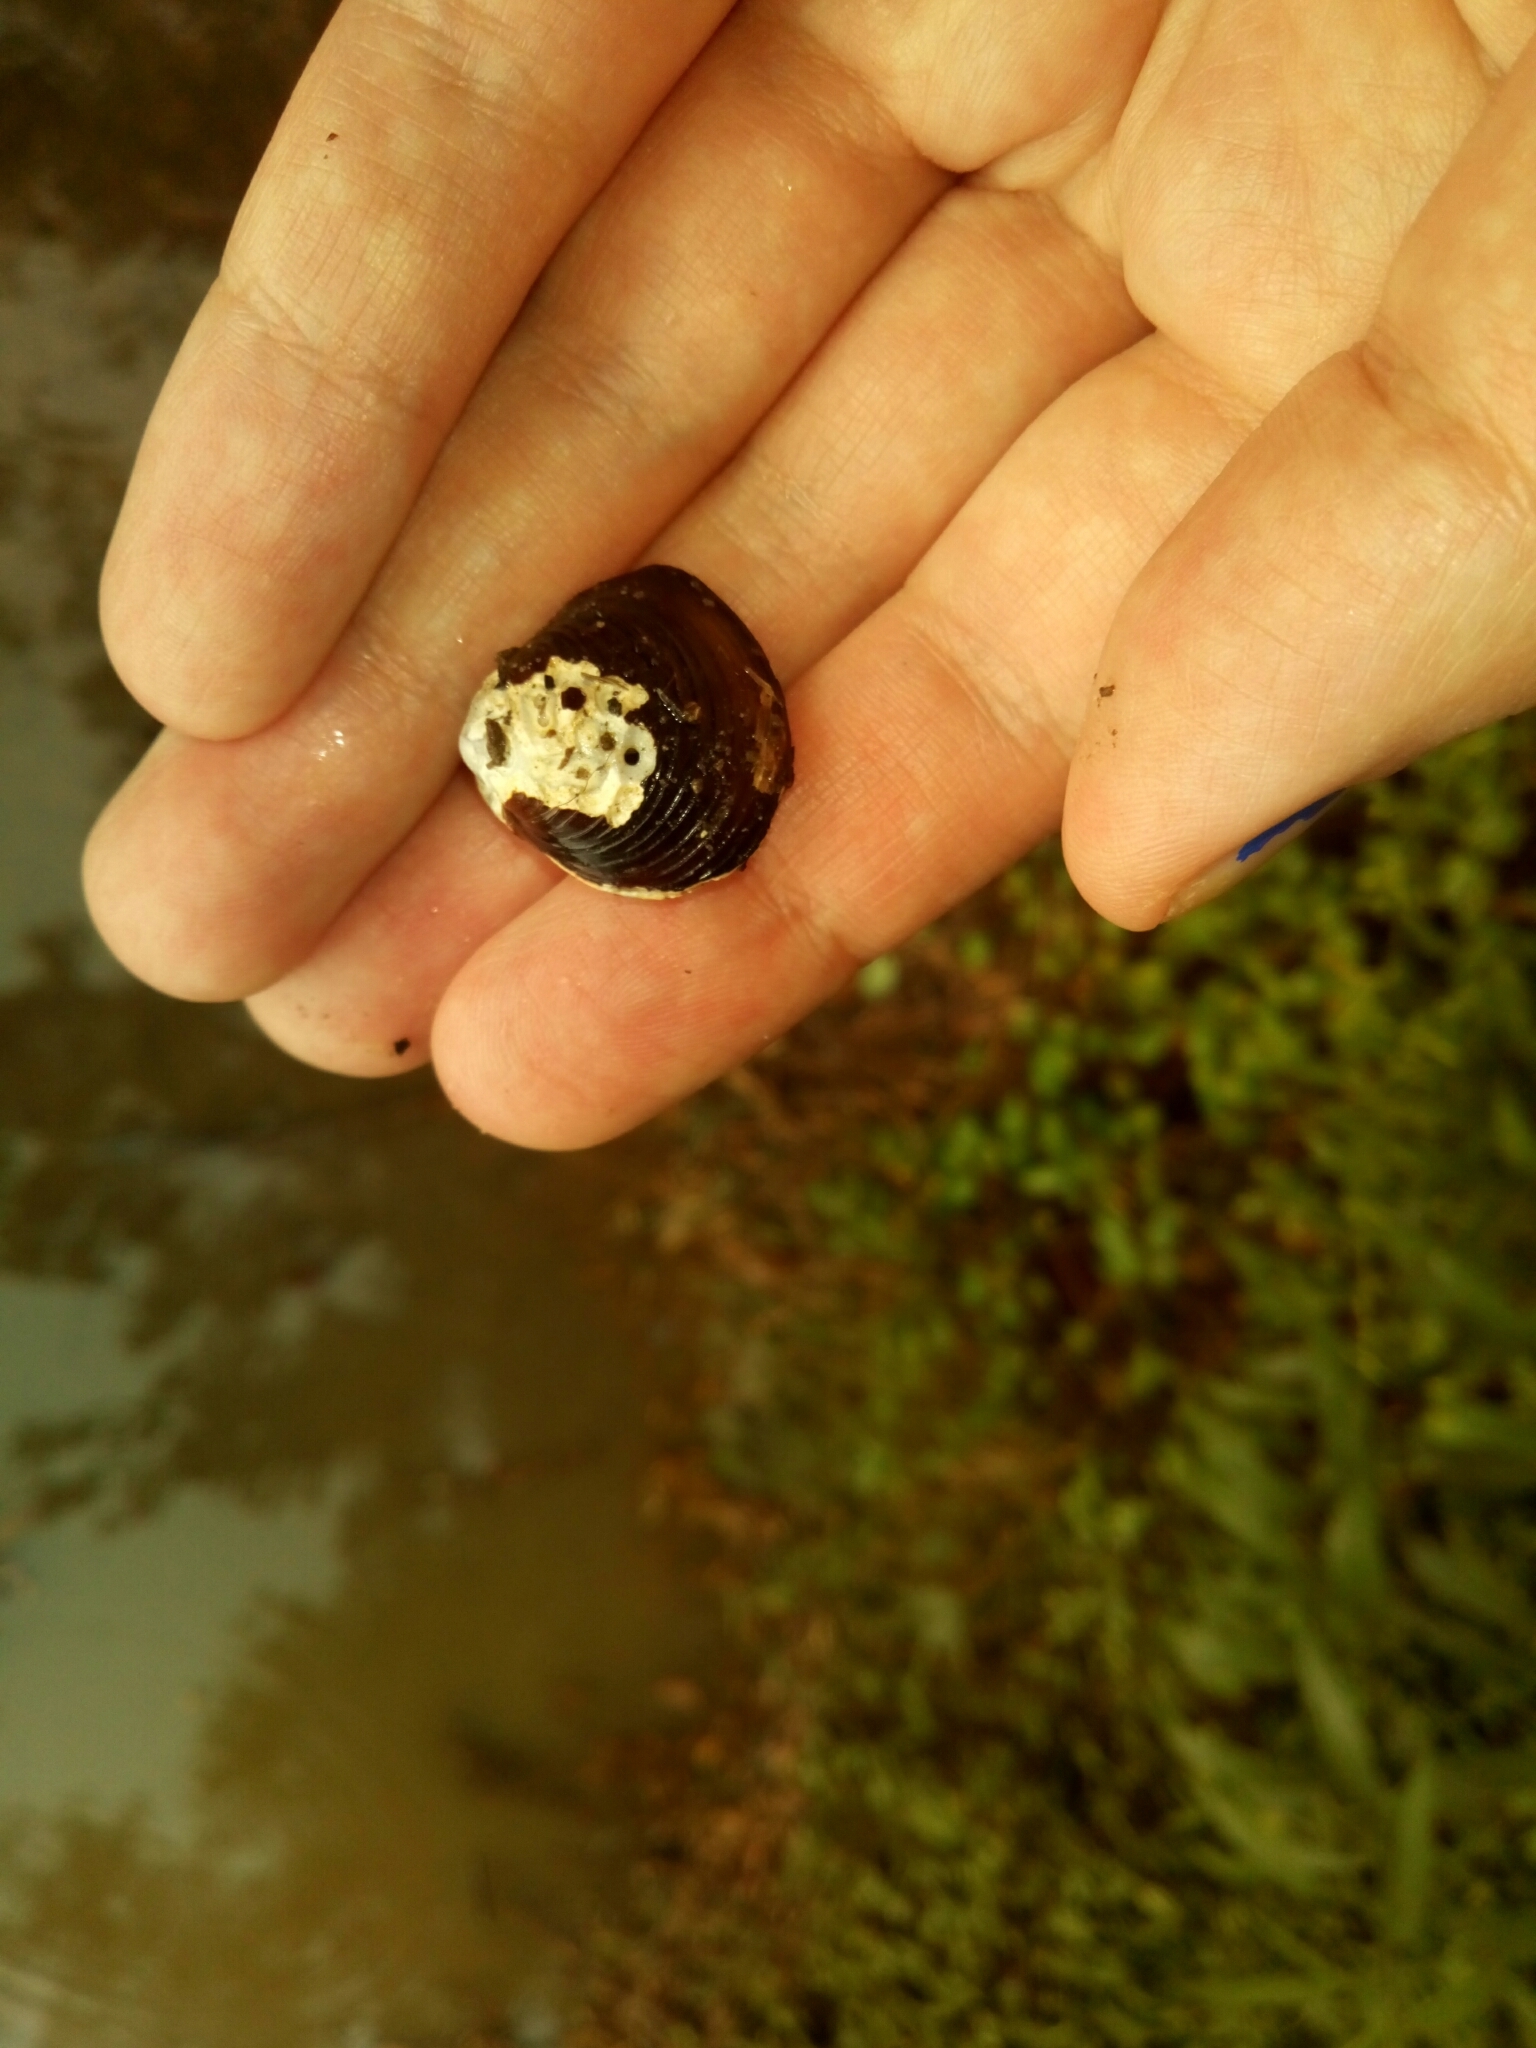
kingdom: Animalia
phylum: Mollusca
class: Bivalvia
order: Venerida
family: Cyrenidae
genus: Corbicula
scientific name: Corbicula fluminea
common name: Asian clam
